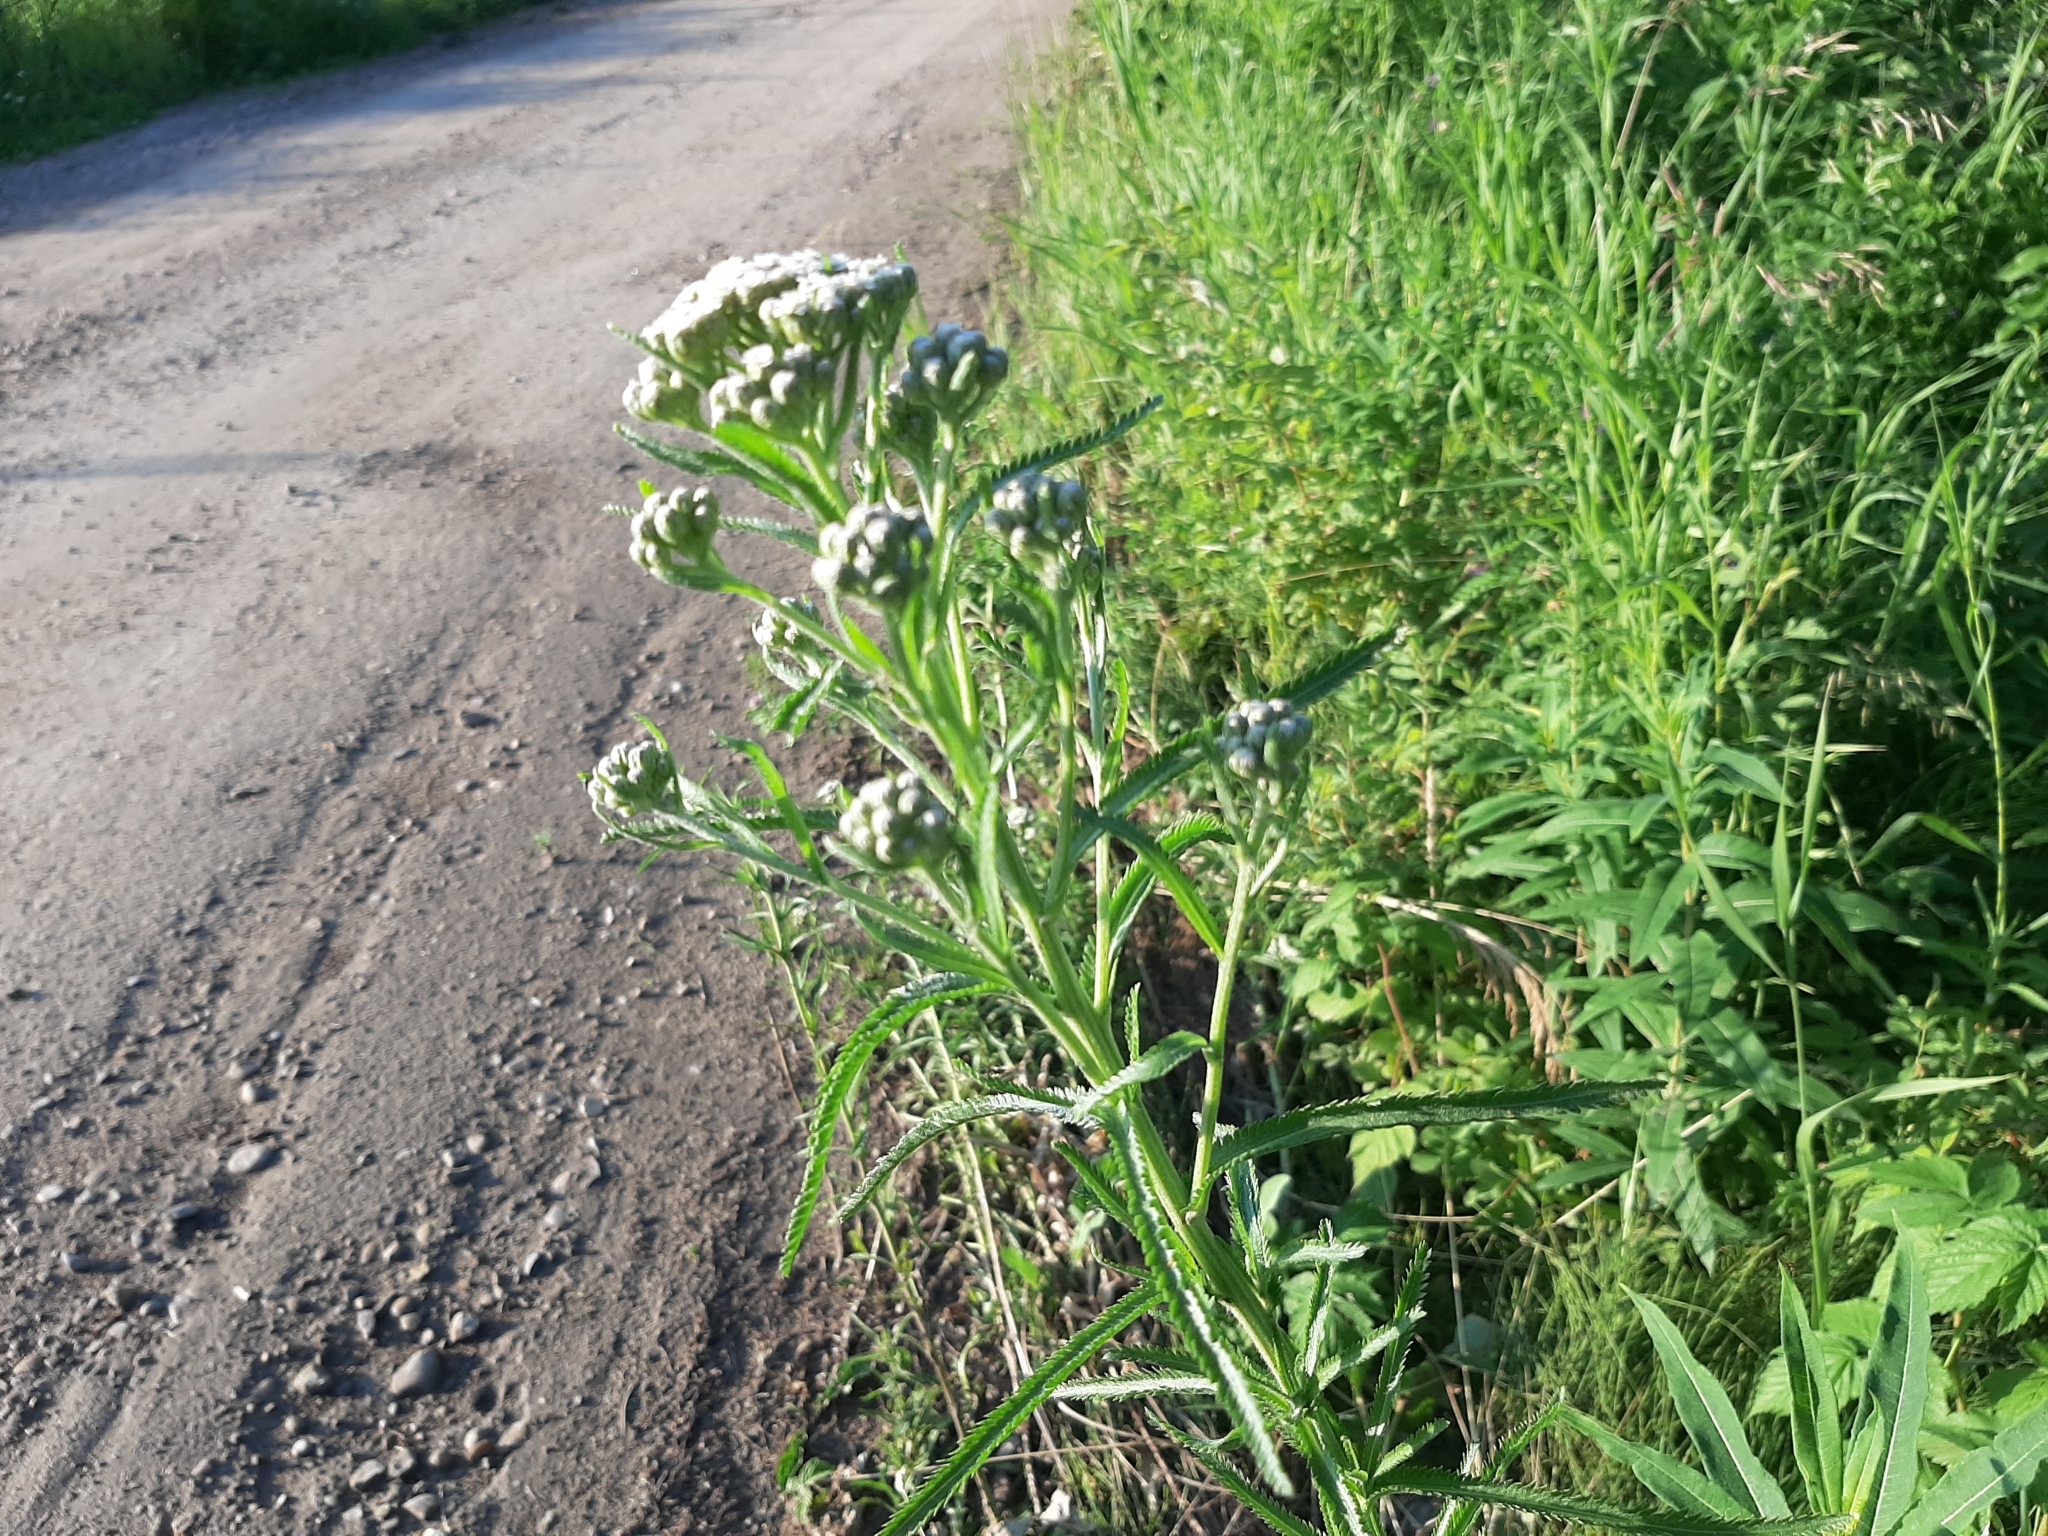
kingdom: Plantae
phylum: Tracheophyta
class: Magnoliopsida
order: Asterales
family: Asteraceae
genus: Achillea
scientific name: Achillea alpina
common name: Siberian yarrow
